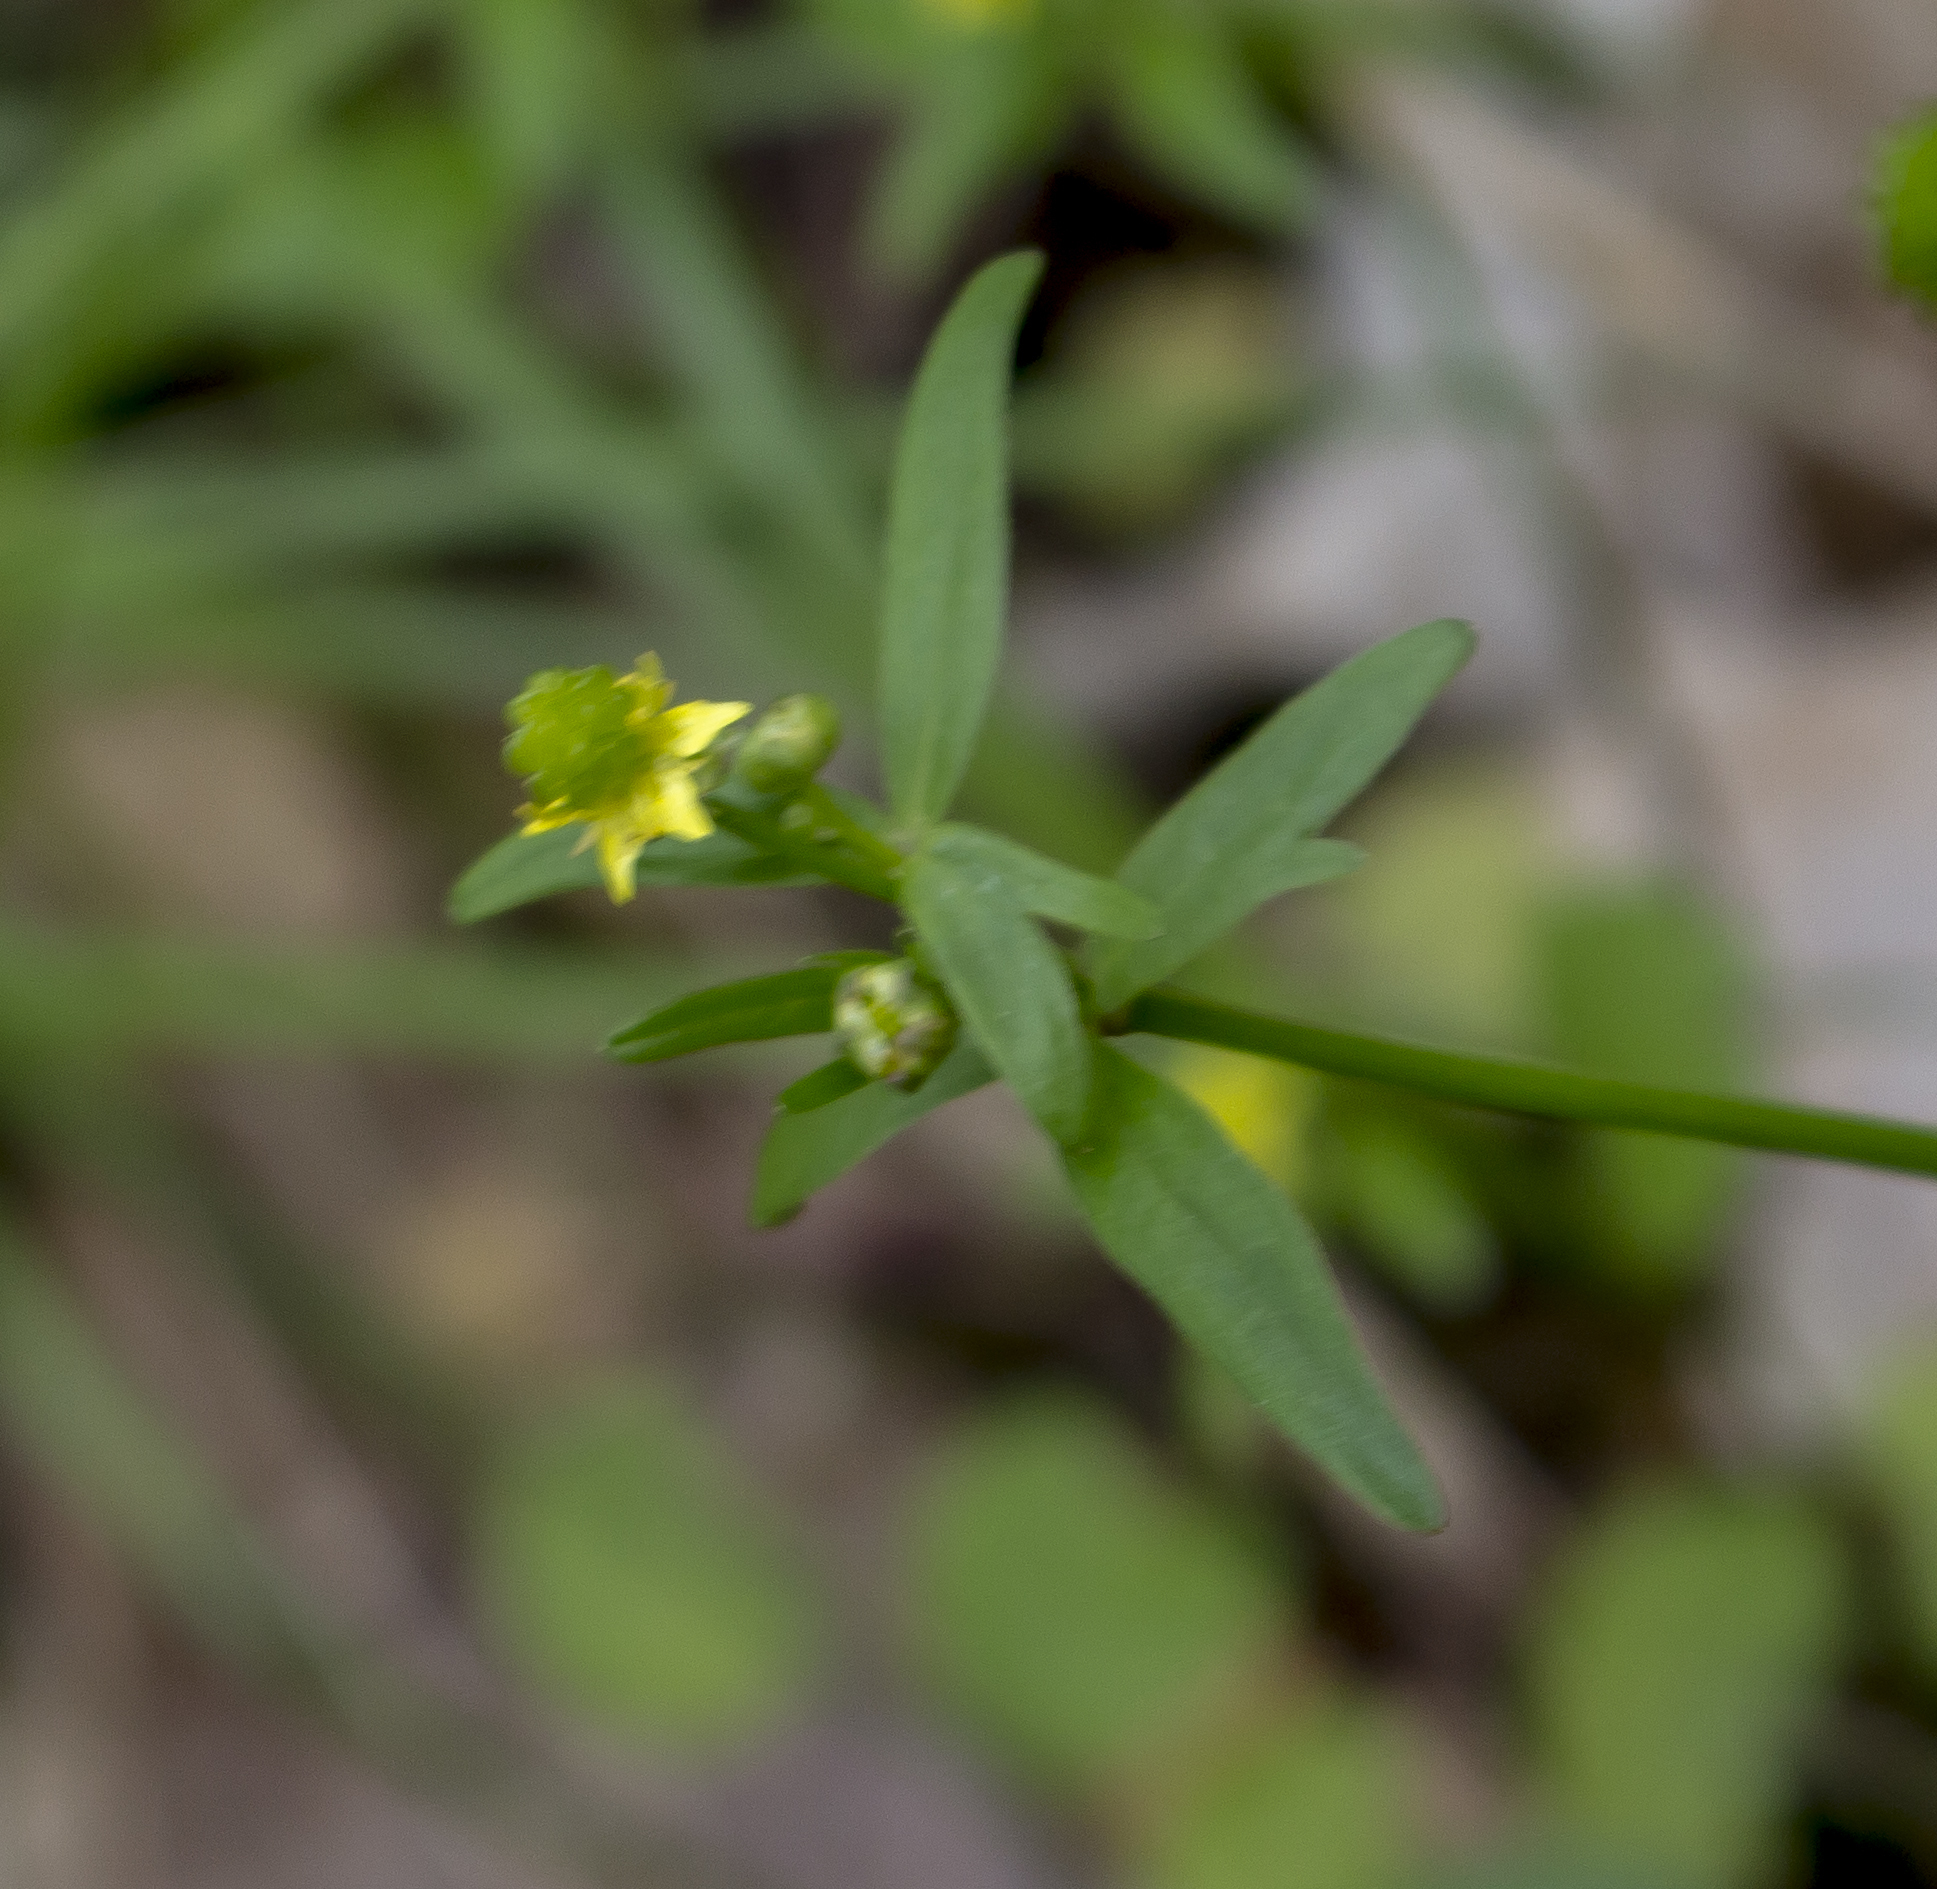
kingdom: Plantae
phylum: Tracheophyta
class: Magnoliopsida
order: Ranunculales
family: Ranunculaceae
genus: Ranunculus
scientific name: Ranunculus abortivus
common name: Early wood buttercup
